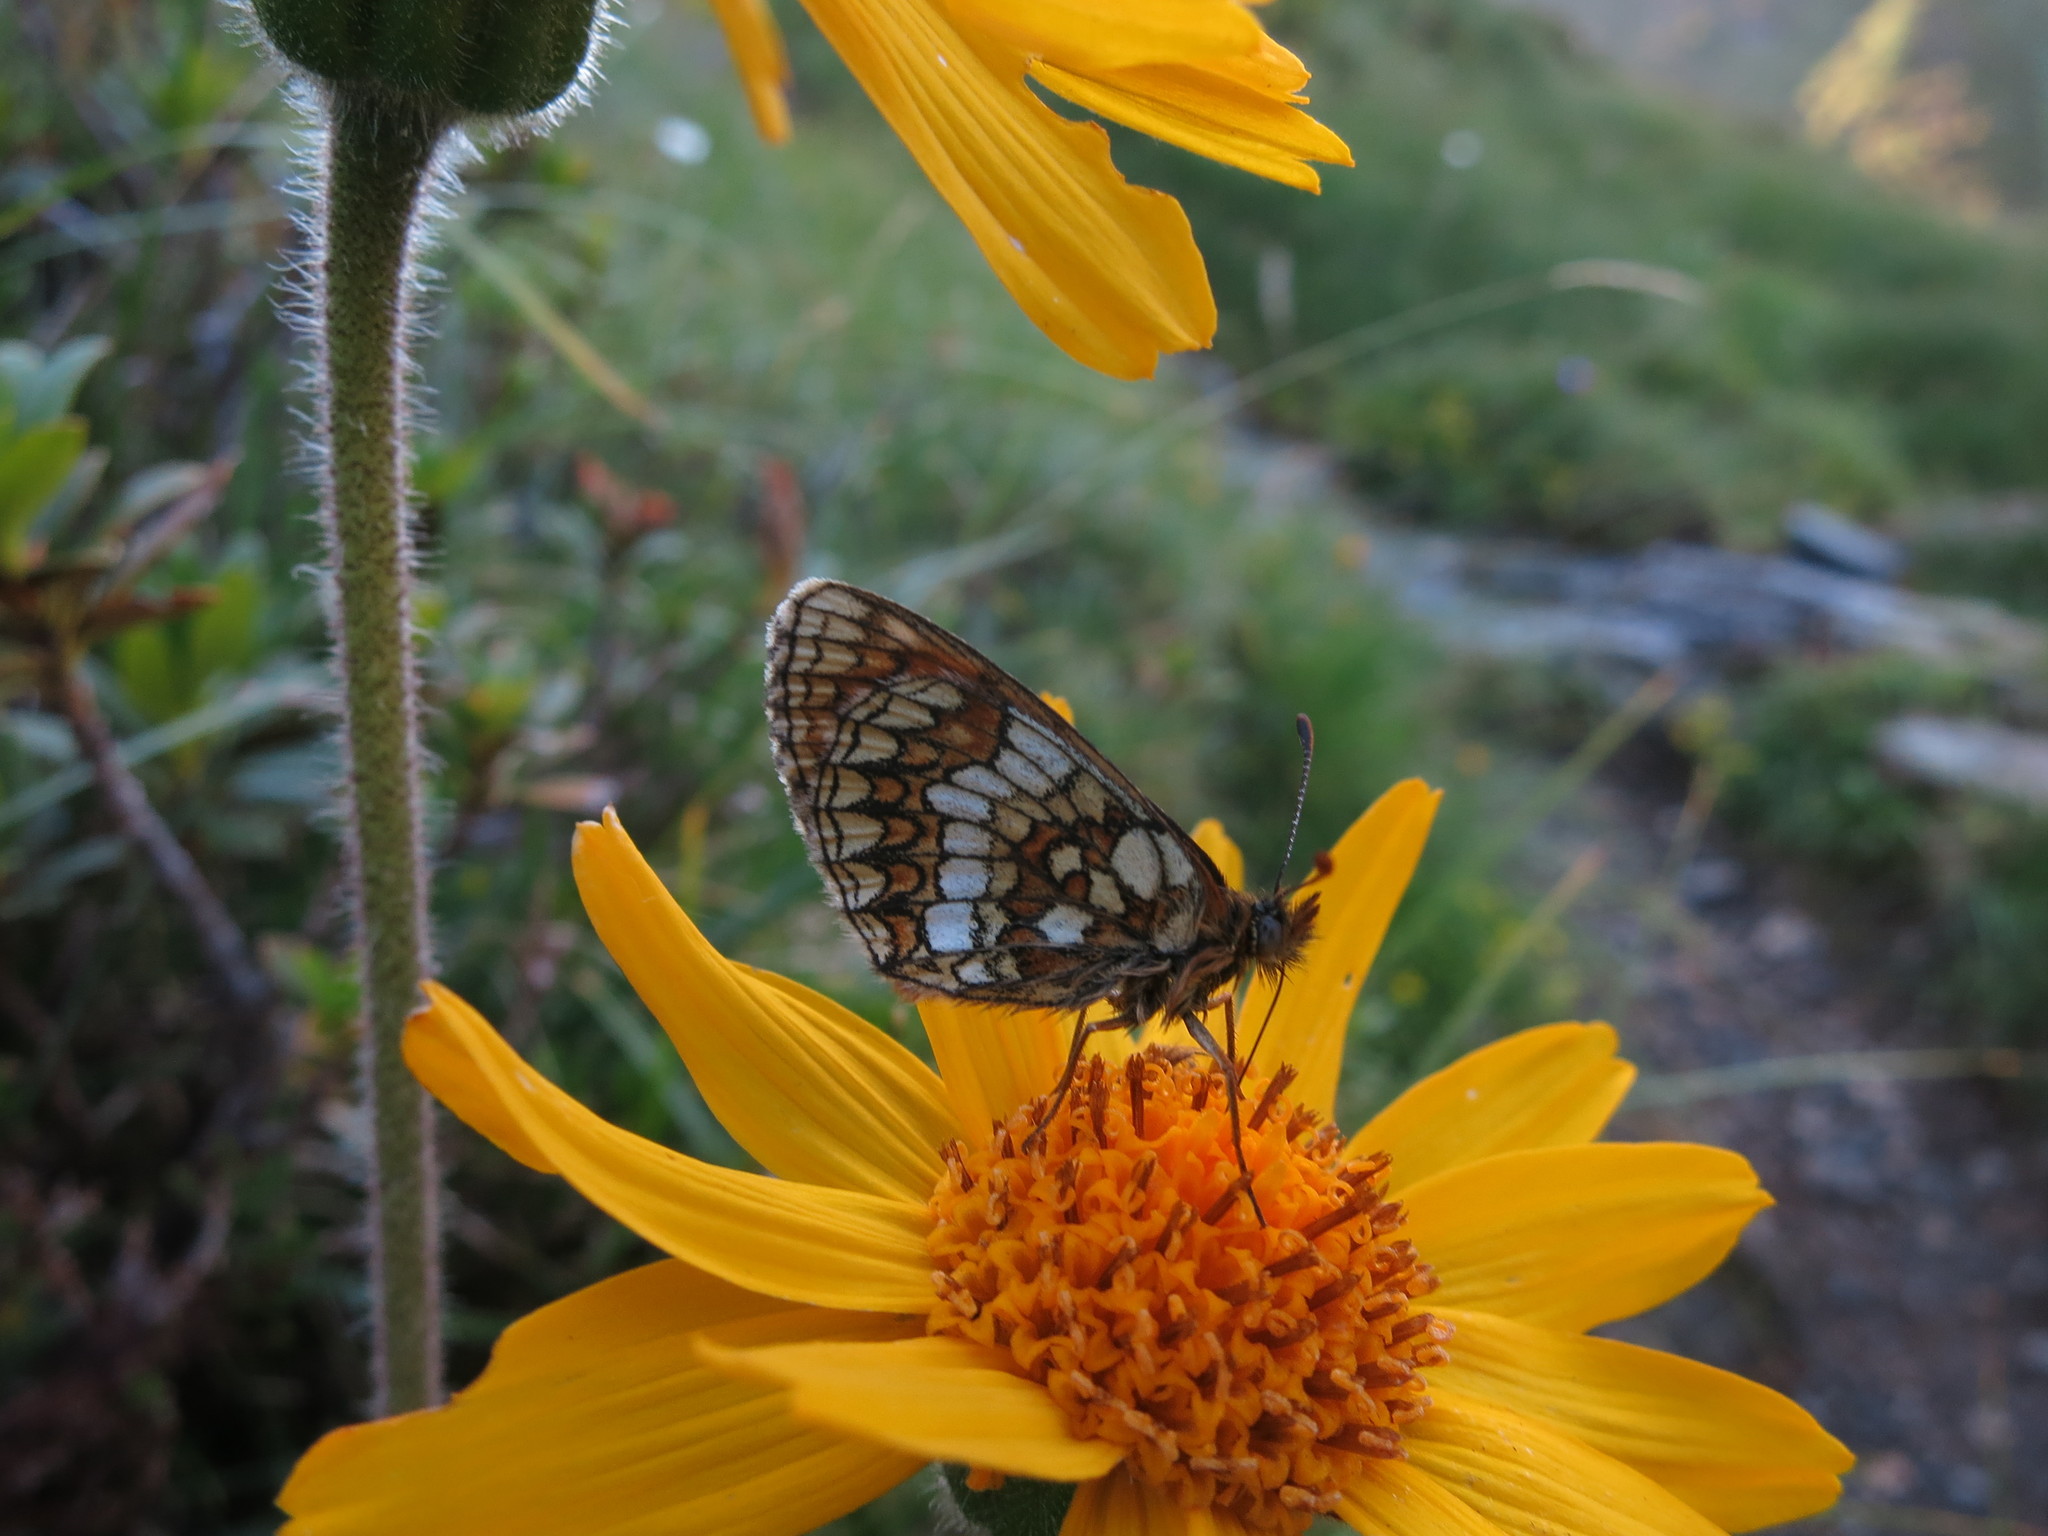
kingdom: Animalia
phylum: Arthropoda
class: Insecta
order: Lepidoptera
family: Nymphalidae
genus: Melitaea
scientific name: Melitaea varia
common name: Grisons fritillary
